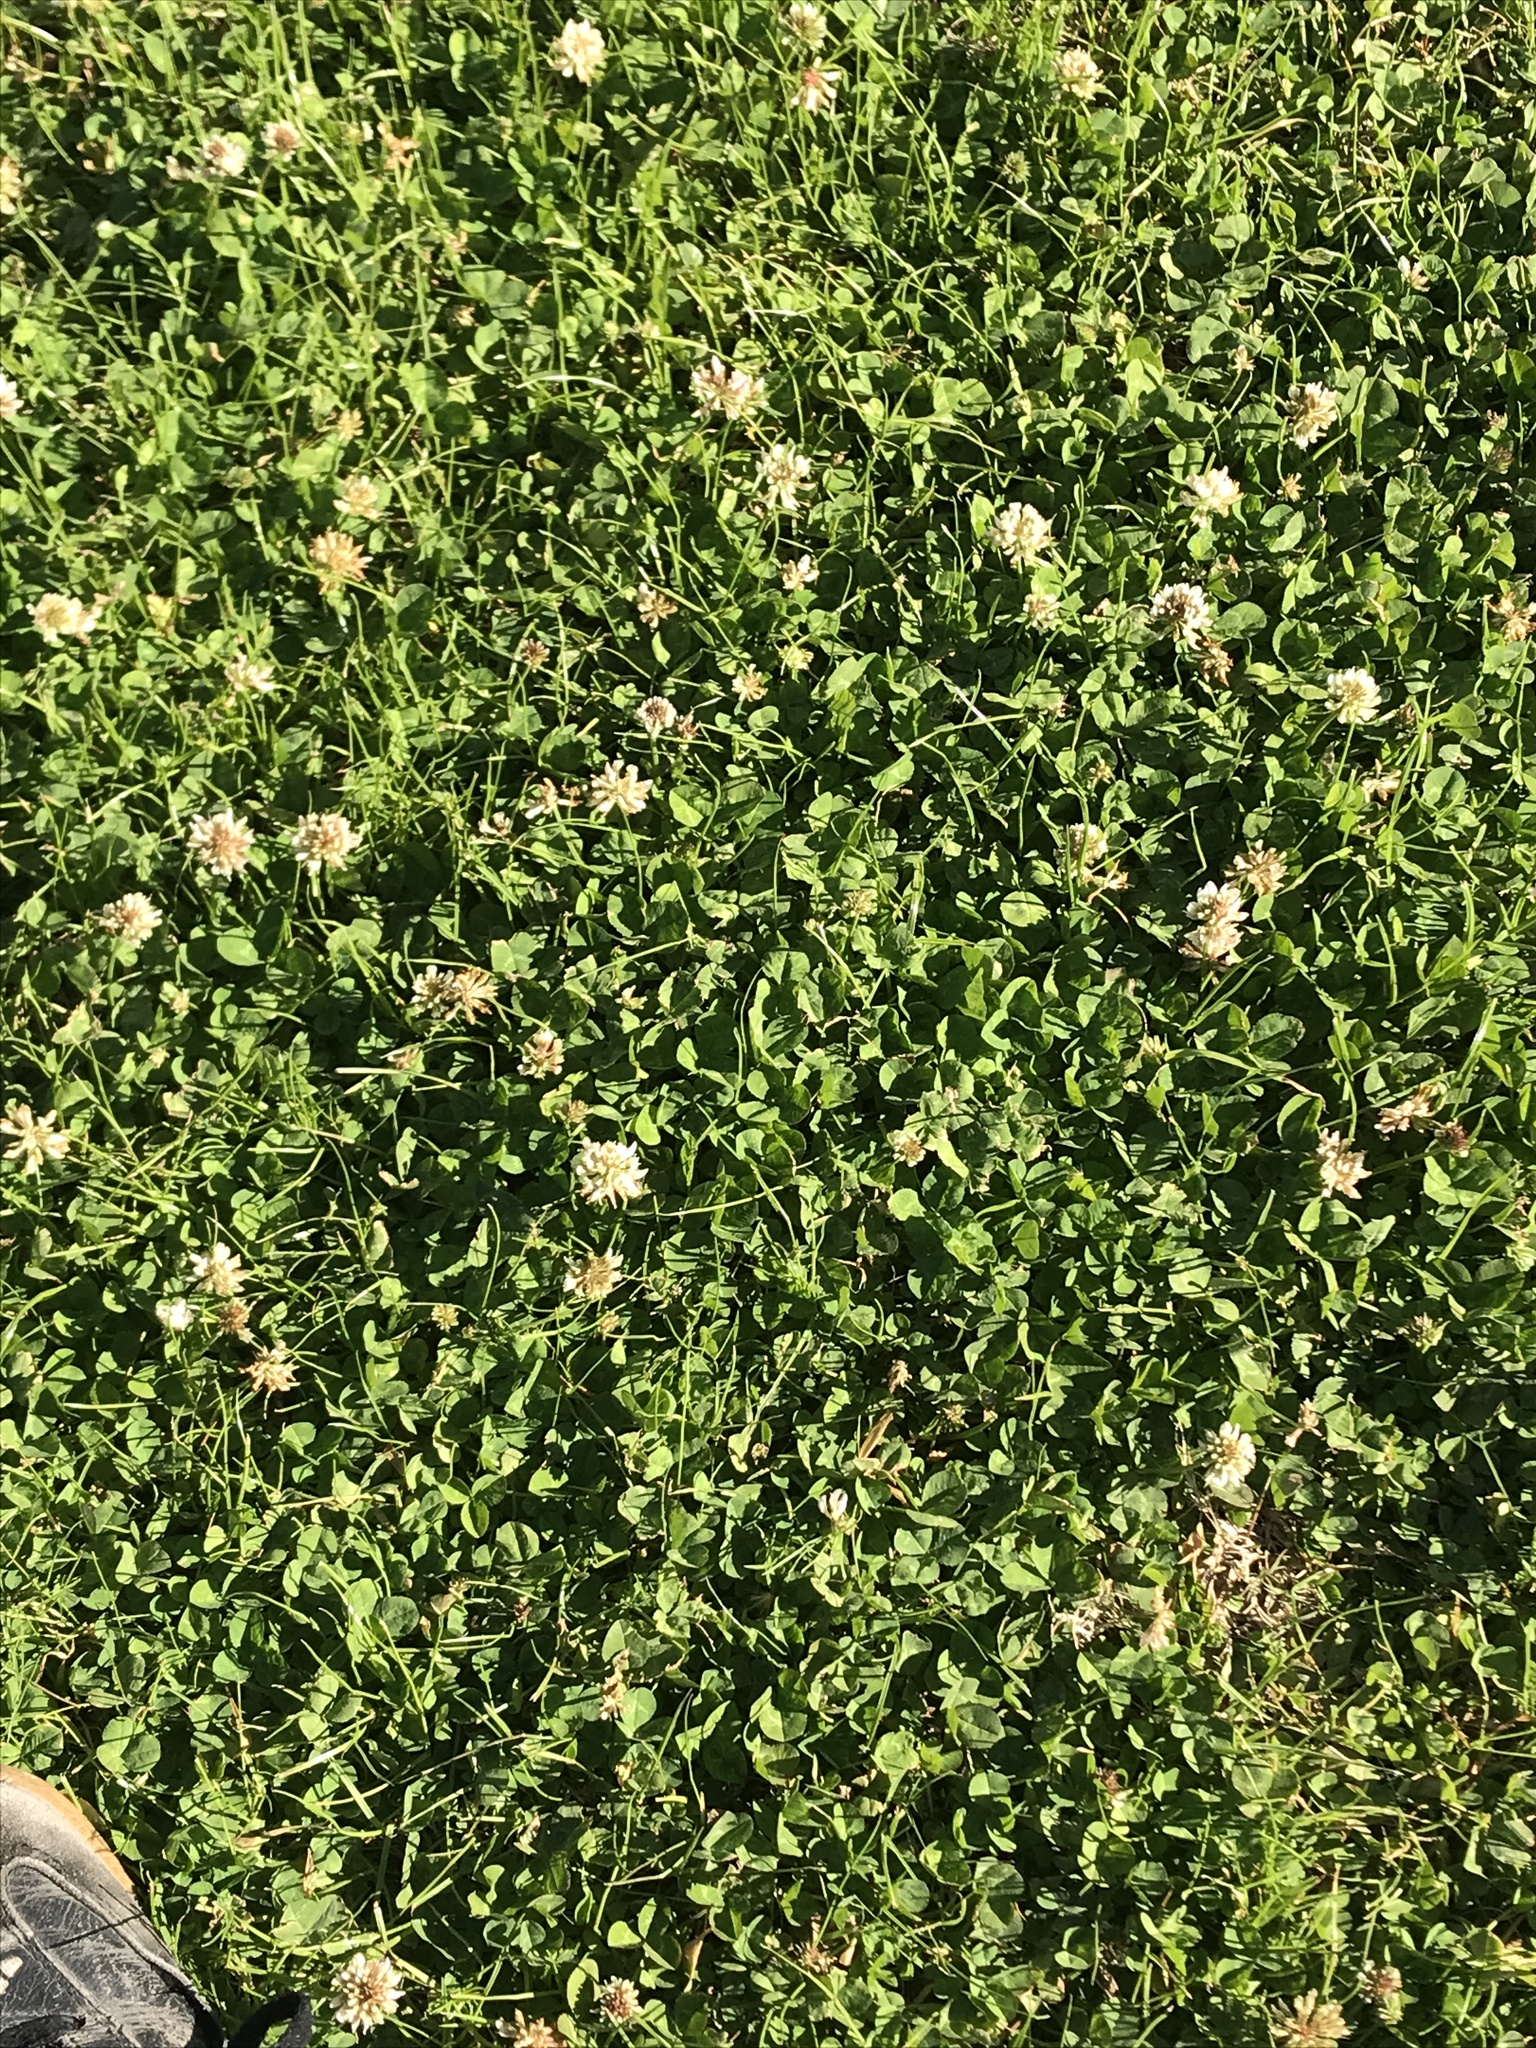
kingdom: Plantae
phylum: Tracheophyta
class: Magnoliopsida
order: Fabales
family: Fabaceae
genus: Trifolium
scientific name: Trifolium repens
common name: White clover
